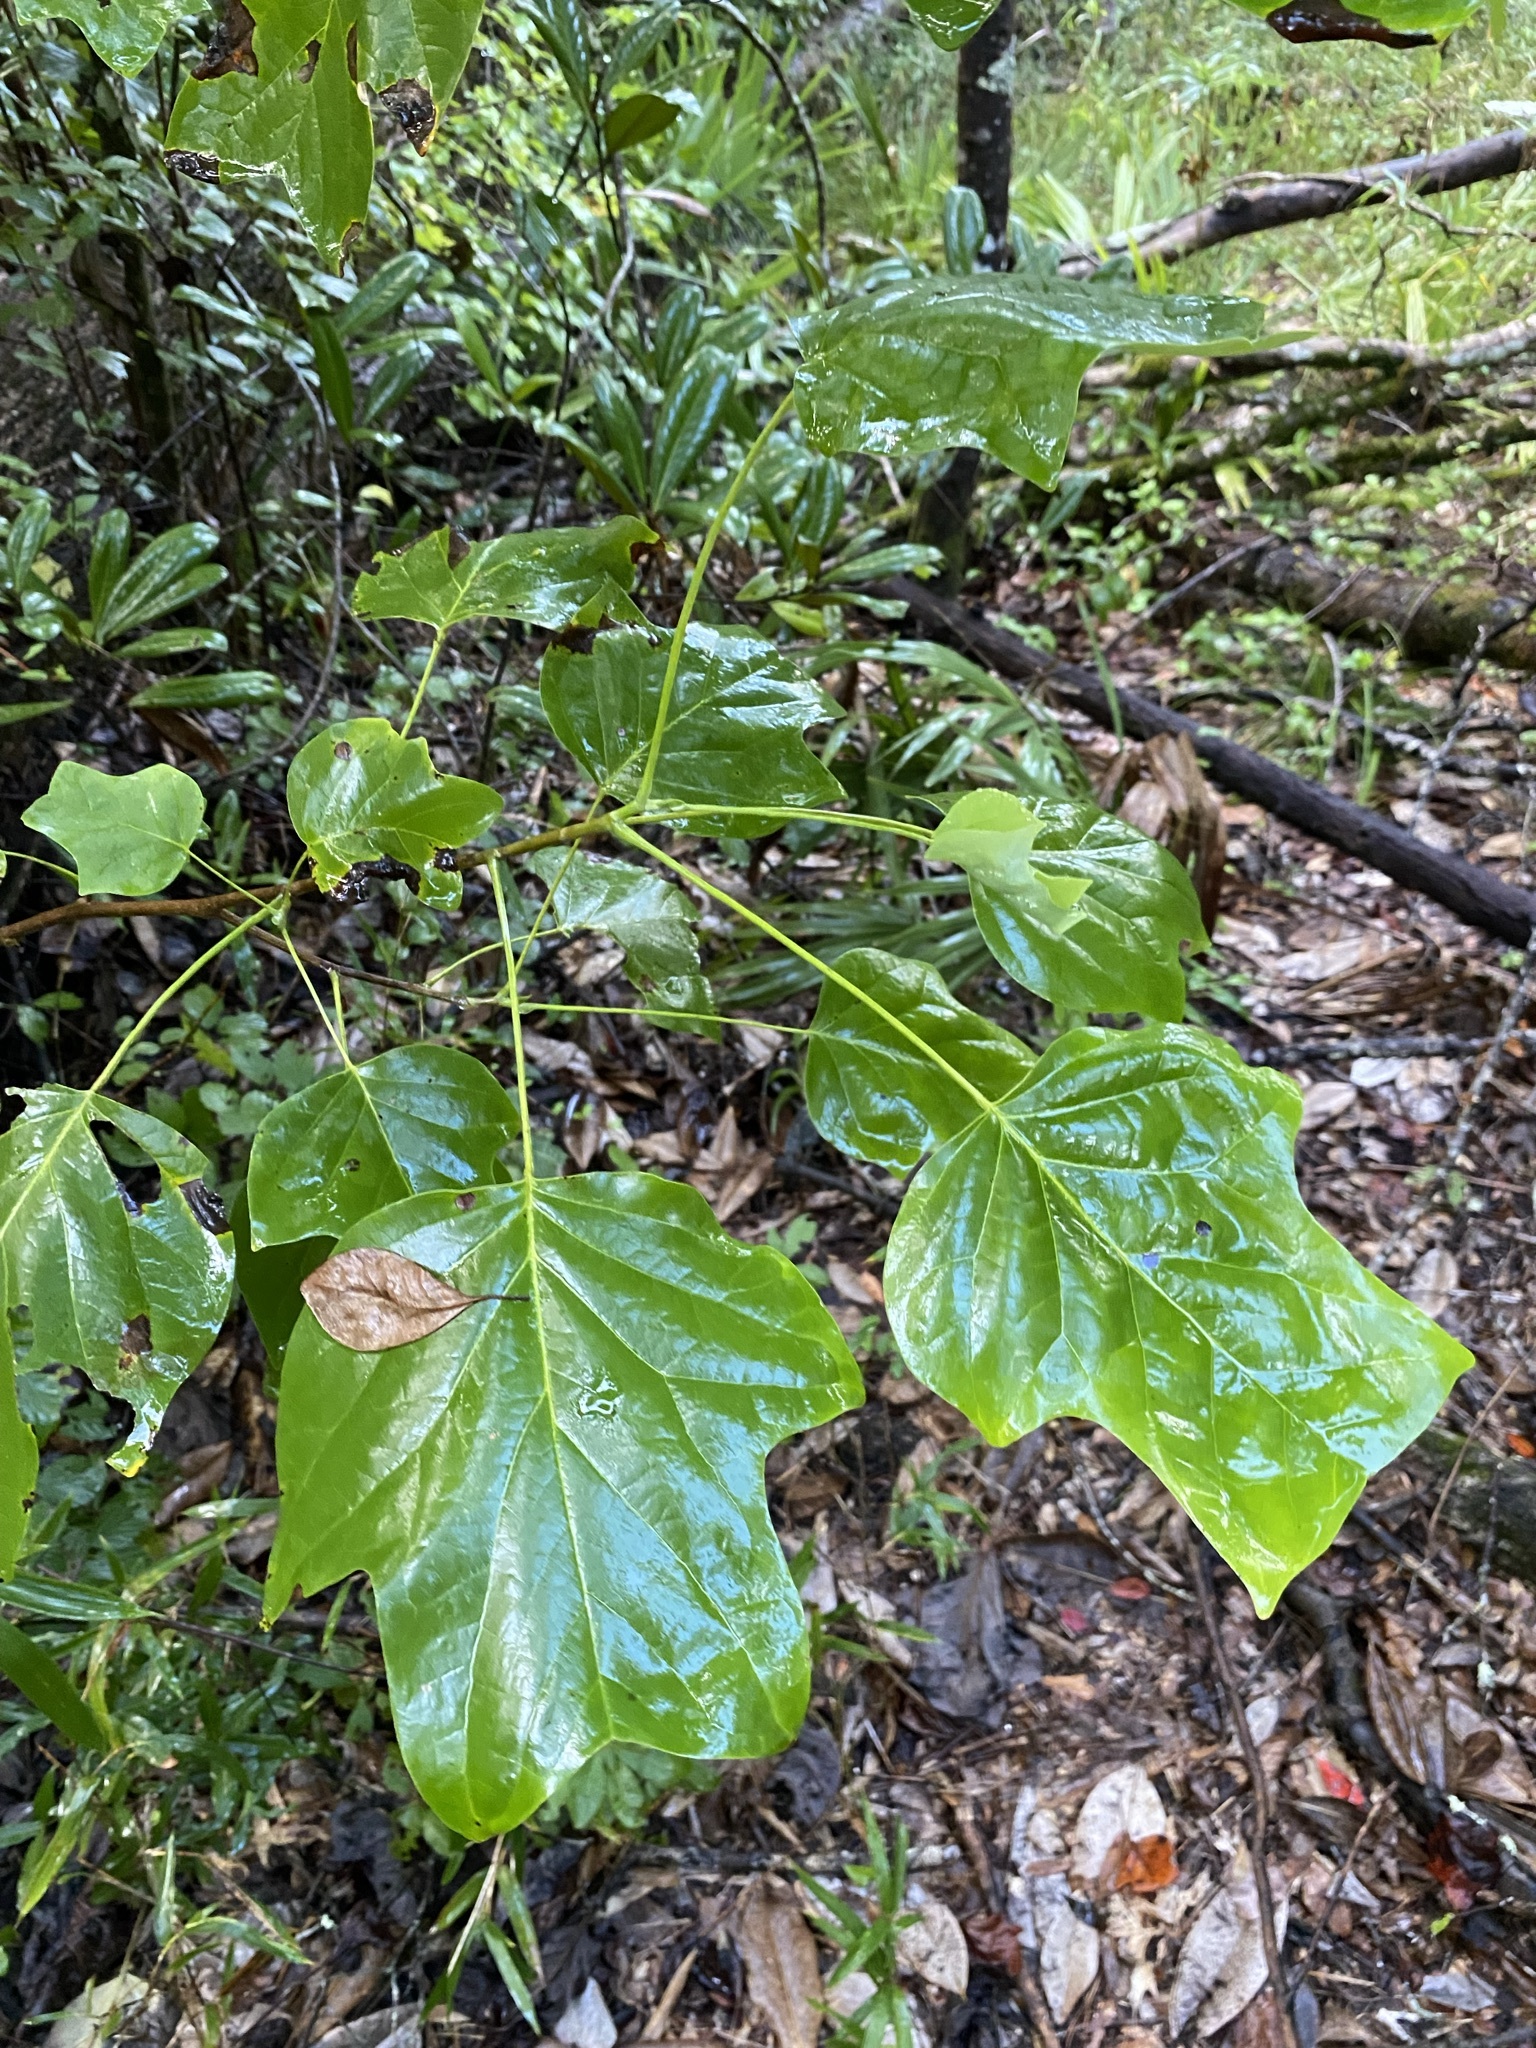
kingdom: Plantae
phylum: Tracheophyta
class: Magnoliopsida
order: Magnoliales
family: Magnoliaceae
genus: Liriodendron
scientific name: Liriodendron tulipifera
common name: Tulip tree
